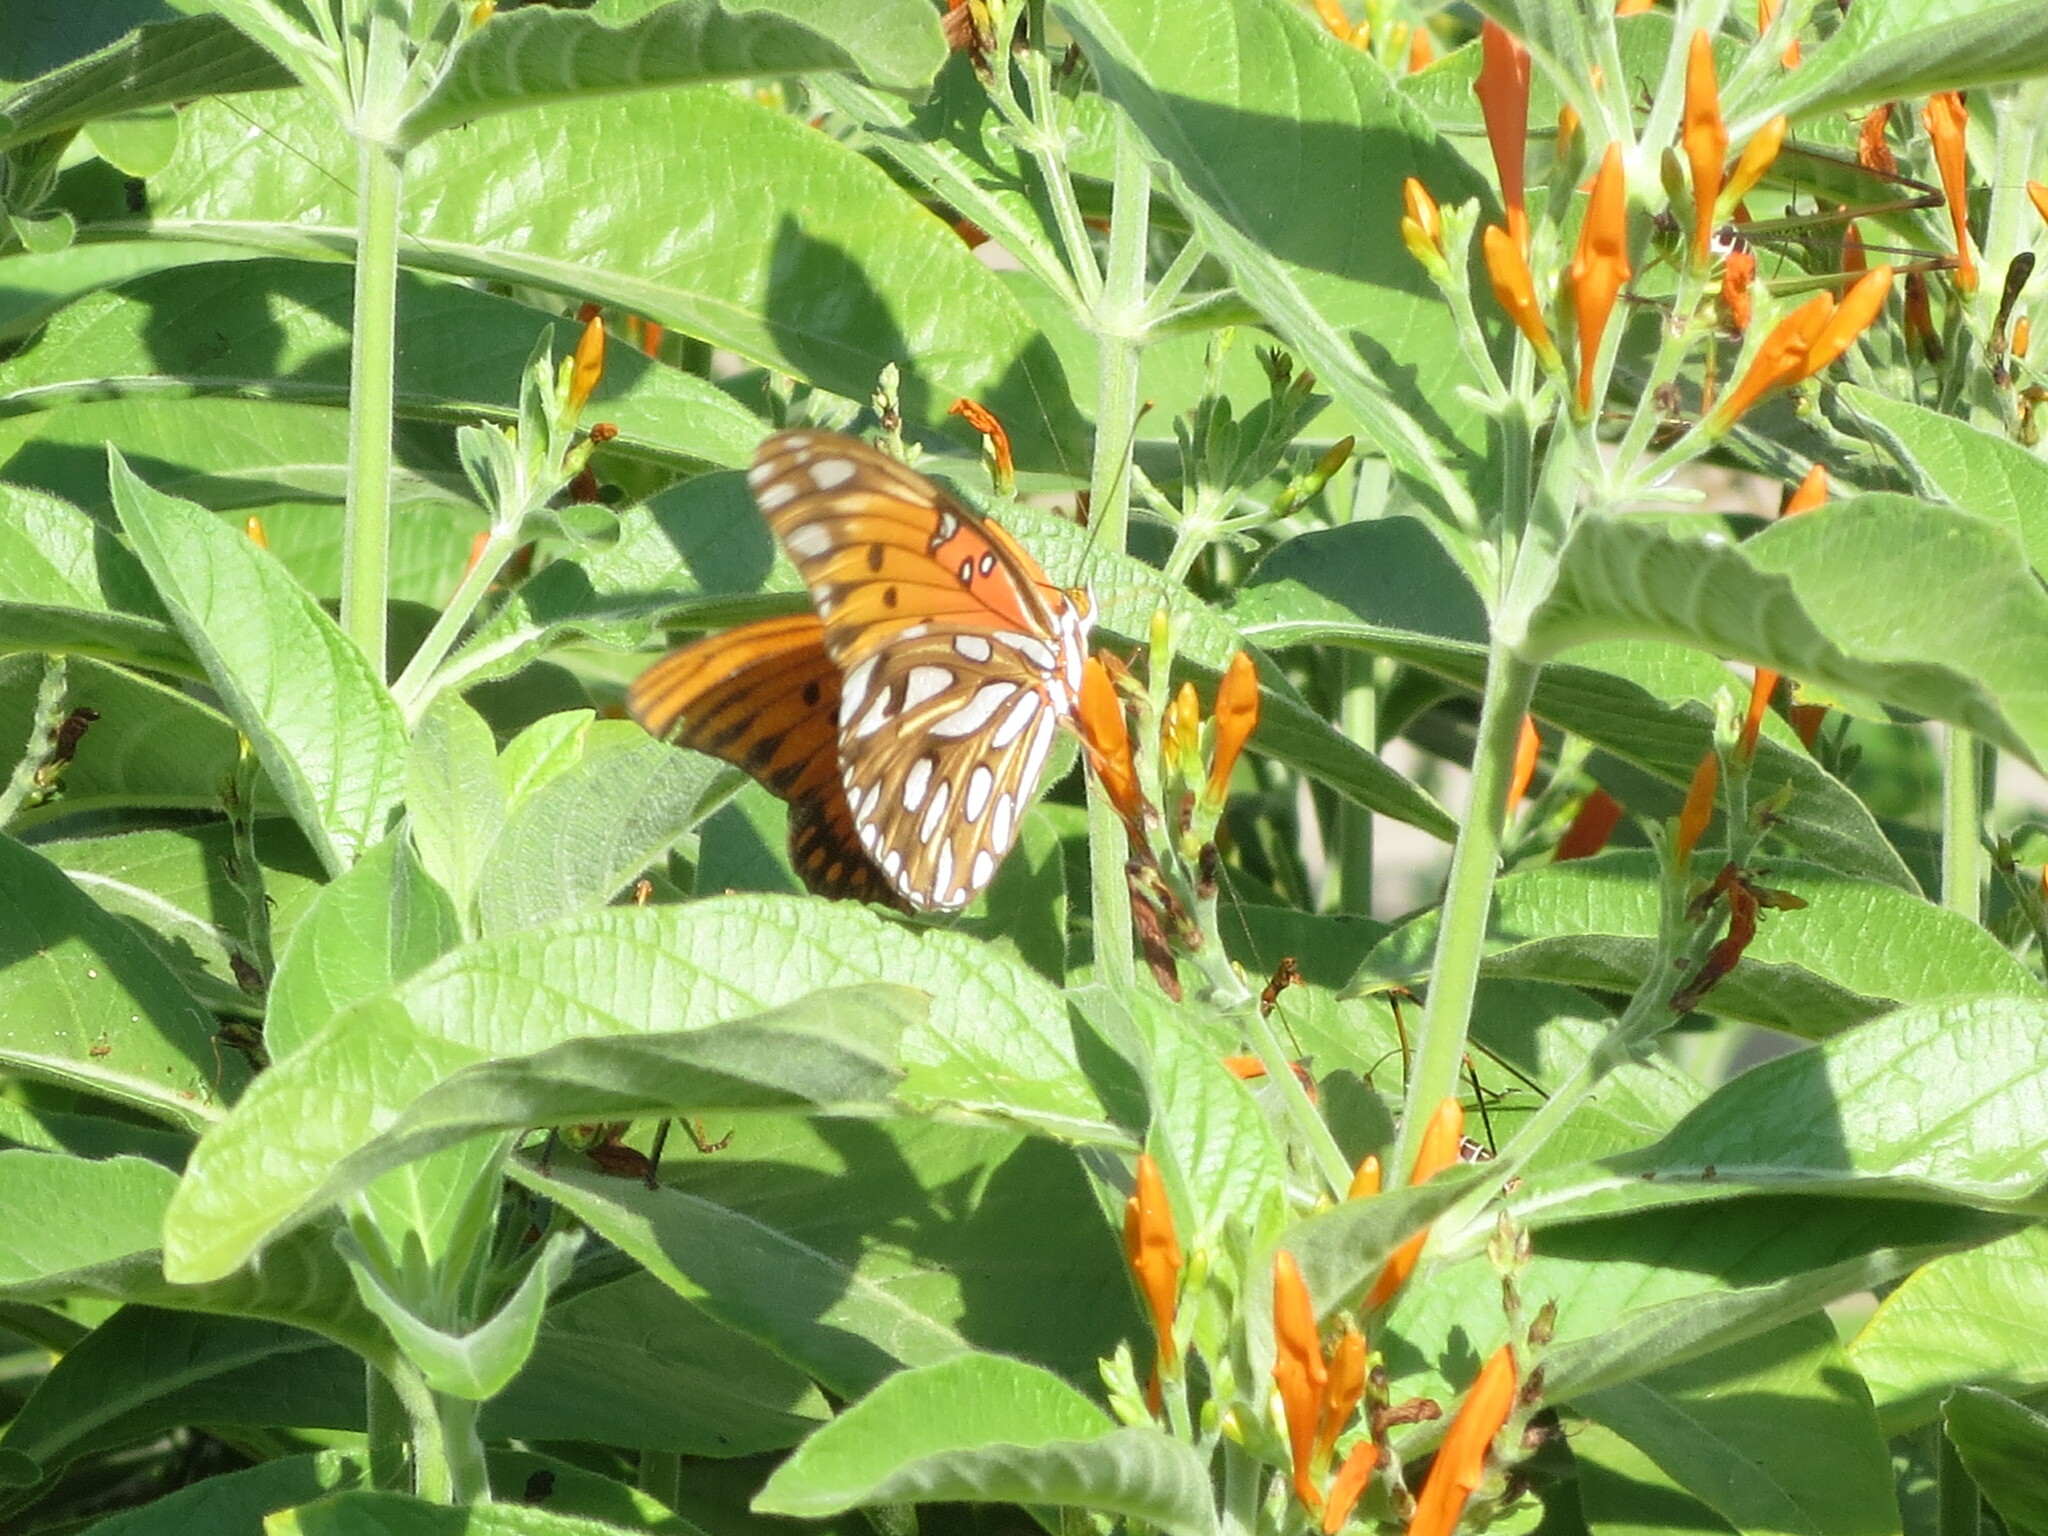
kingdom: Animalia
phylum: Arthropoda
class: Insecta
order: Lepidoptera
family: Nymphalidae
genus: Dione
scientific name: Dione vanillae
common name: Gulf fritillary
